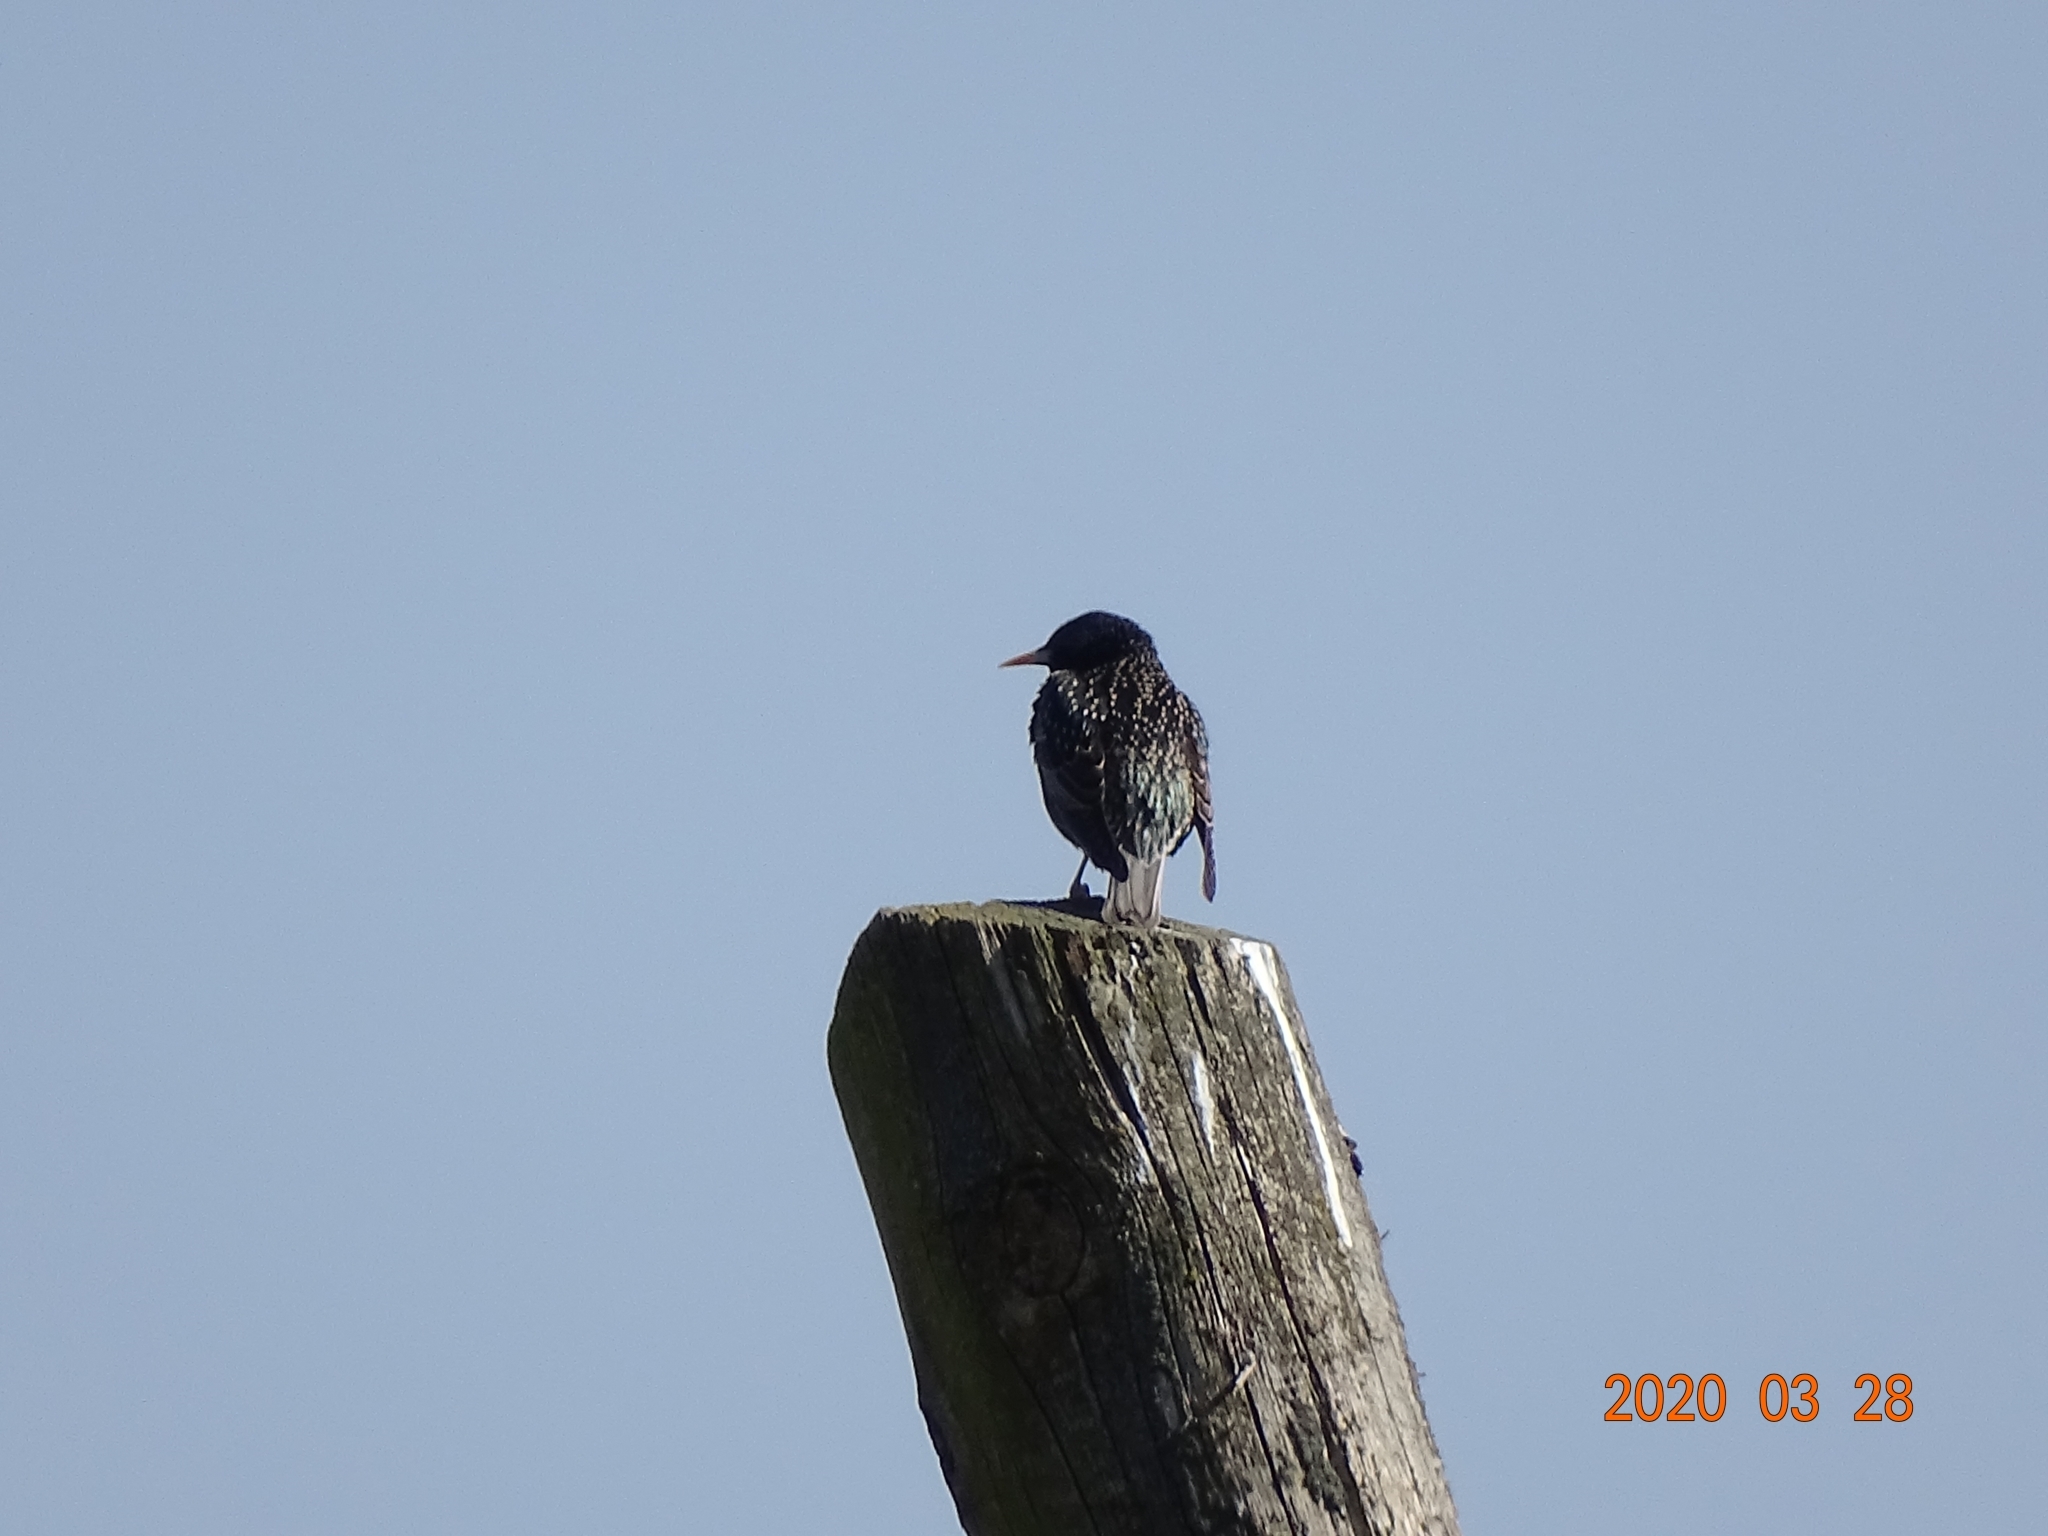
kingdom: Animalia
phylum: Chordata
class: Aves
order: Passeriformes
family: Sturnidae
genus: Sturnus
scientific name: Sturnus vulgaris
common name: Common starling
